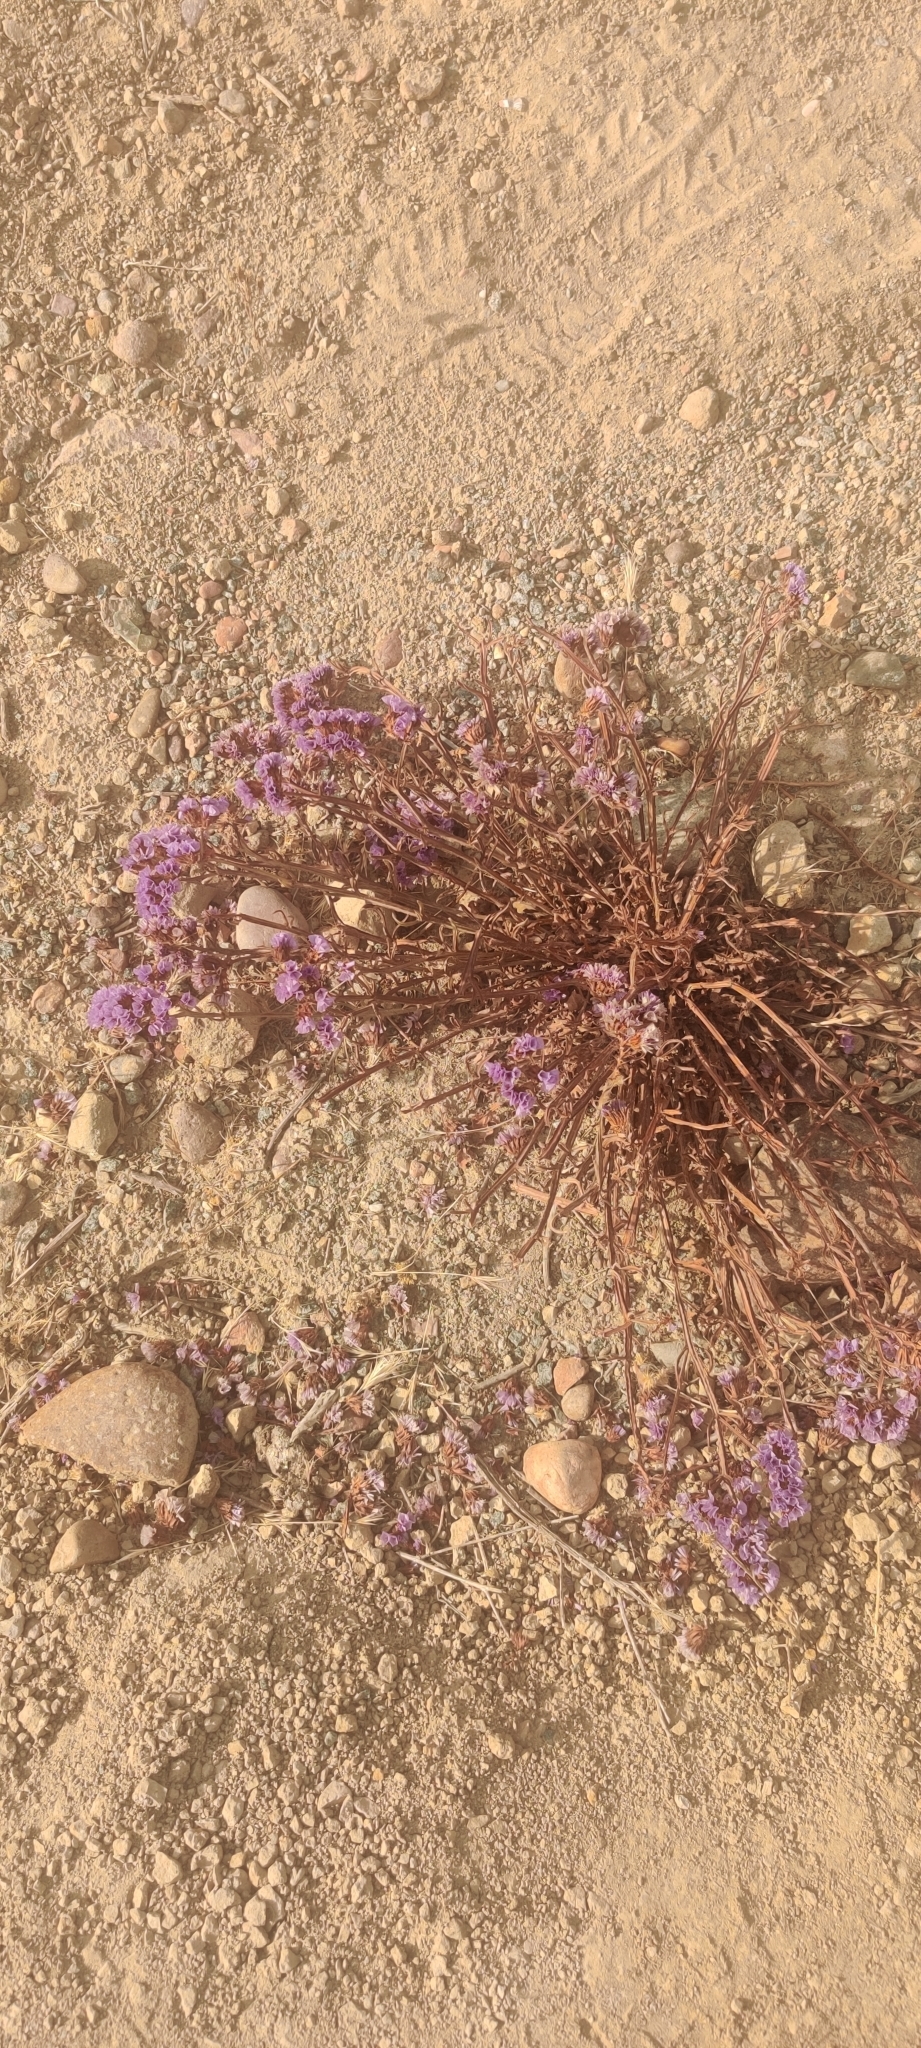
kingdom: Plantae
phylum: Tracheophyta
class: Magnoliopsida
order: Caryophyllales
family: Plumbaginaceae
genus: Limonium
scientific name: Limonium sinuatum
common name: Statice
